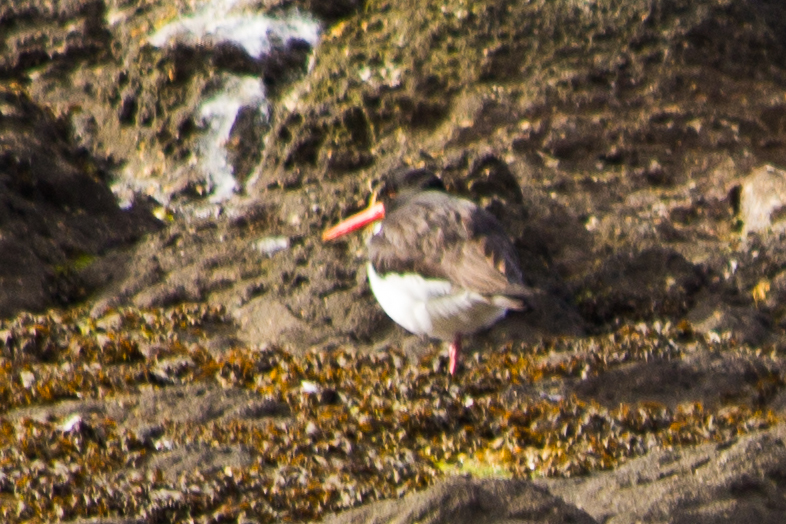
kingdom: Animalia
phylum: Chordata
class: Aves
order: Charadriiformes
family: Haematopodidae
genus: Haematopus
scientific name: Haematopus ostralegus
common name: Eurasian oystercatcher
